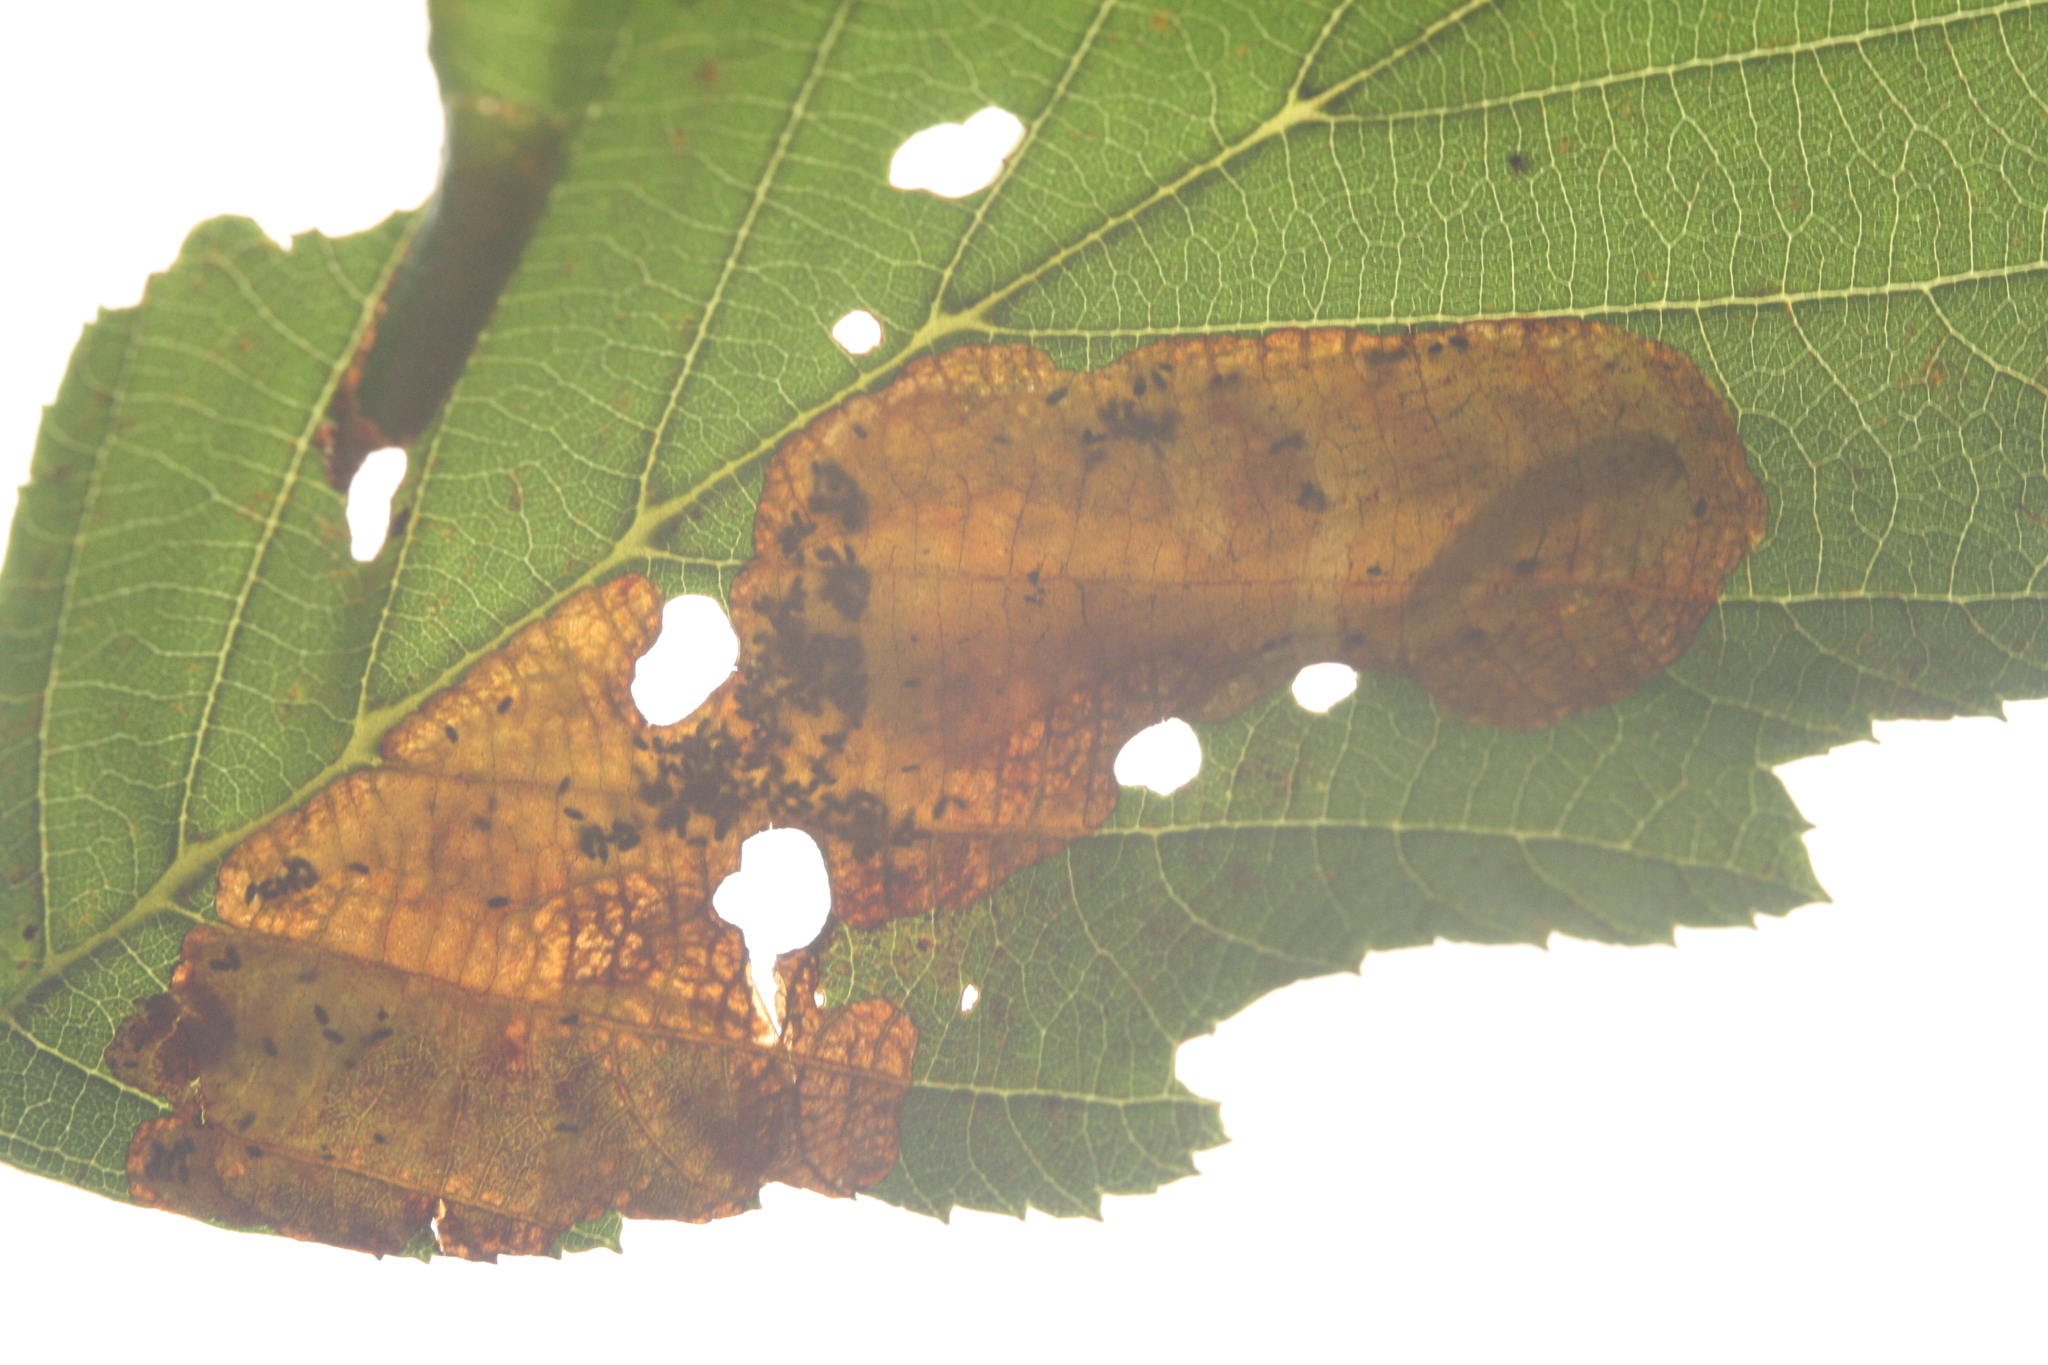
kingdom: Animalia
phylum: Arthropoda
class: Insecta
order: Hymenoptera
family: Tenthredinidae
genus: Heterarthrus
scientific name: Heterarthrus vagans
